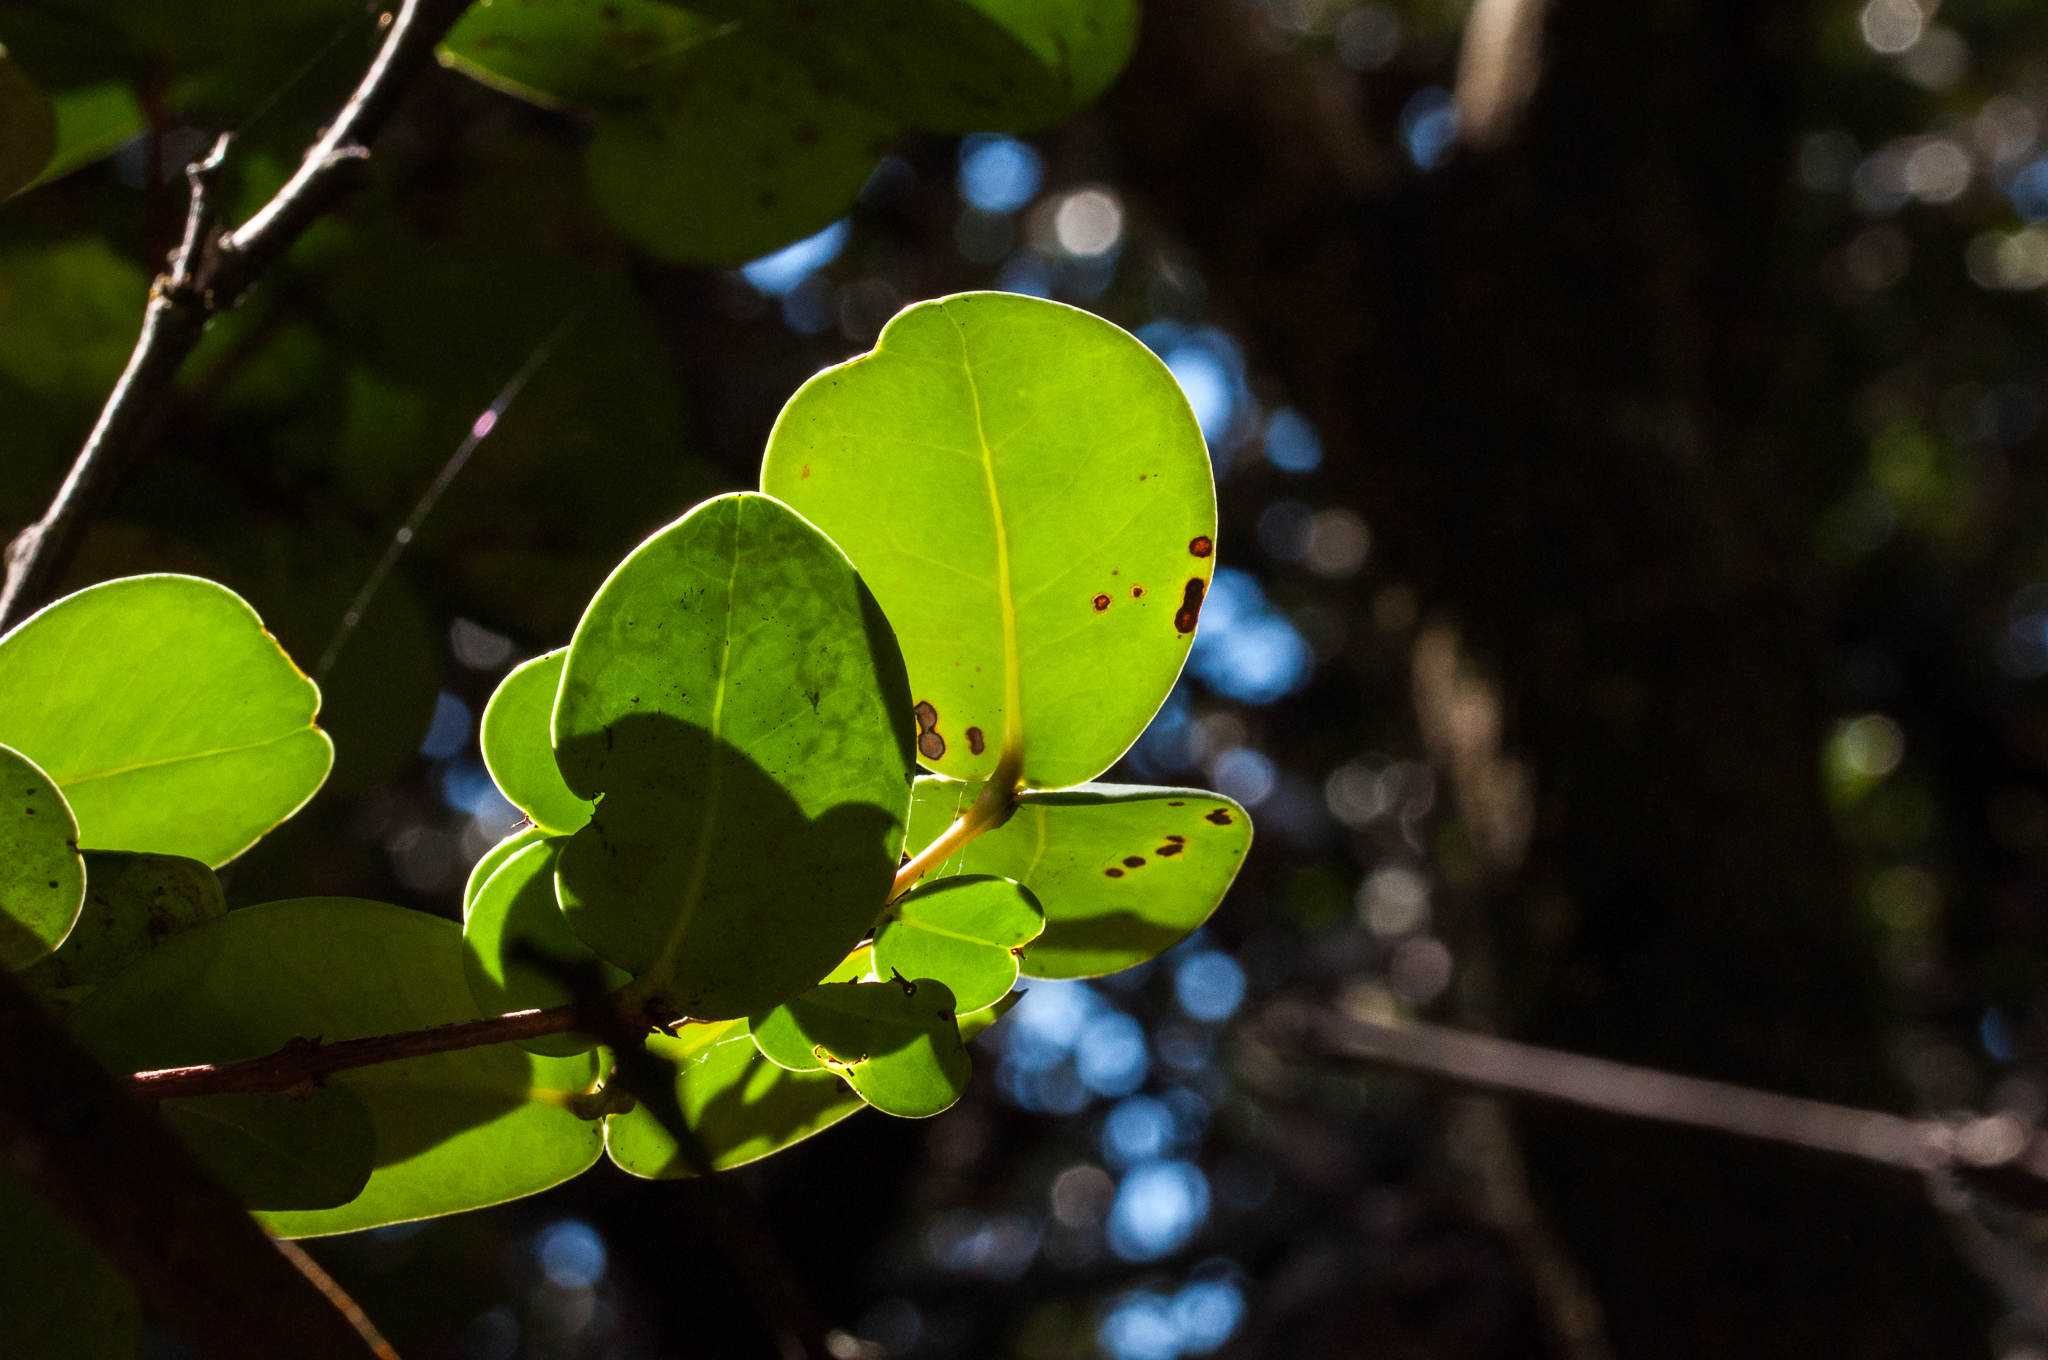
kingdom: Plantae
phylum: Tracheophyta
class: Magnoliopsida
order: Lamiales
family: Oleaceae
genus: Olea
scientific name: Olea capensis
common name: Black ironwood
